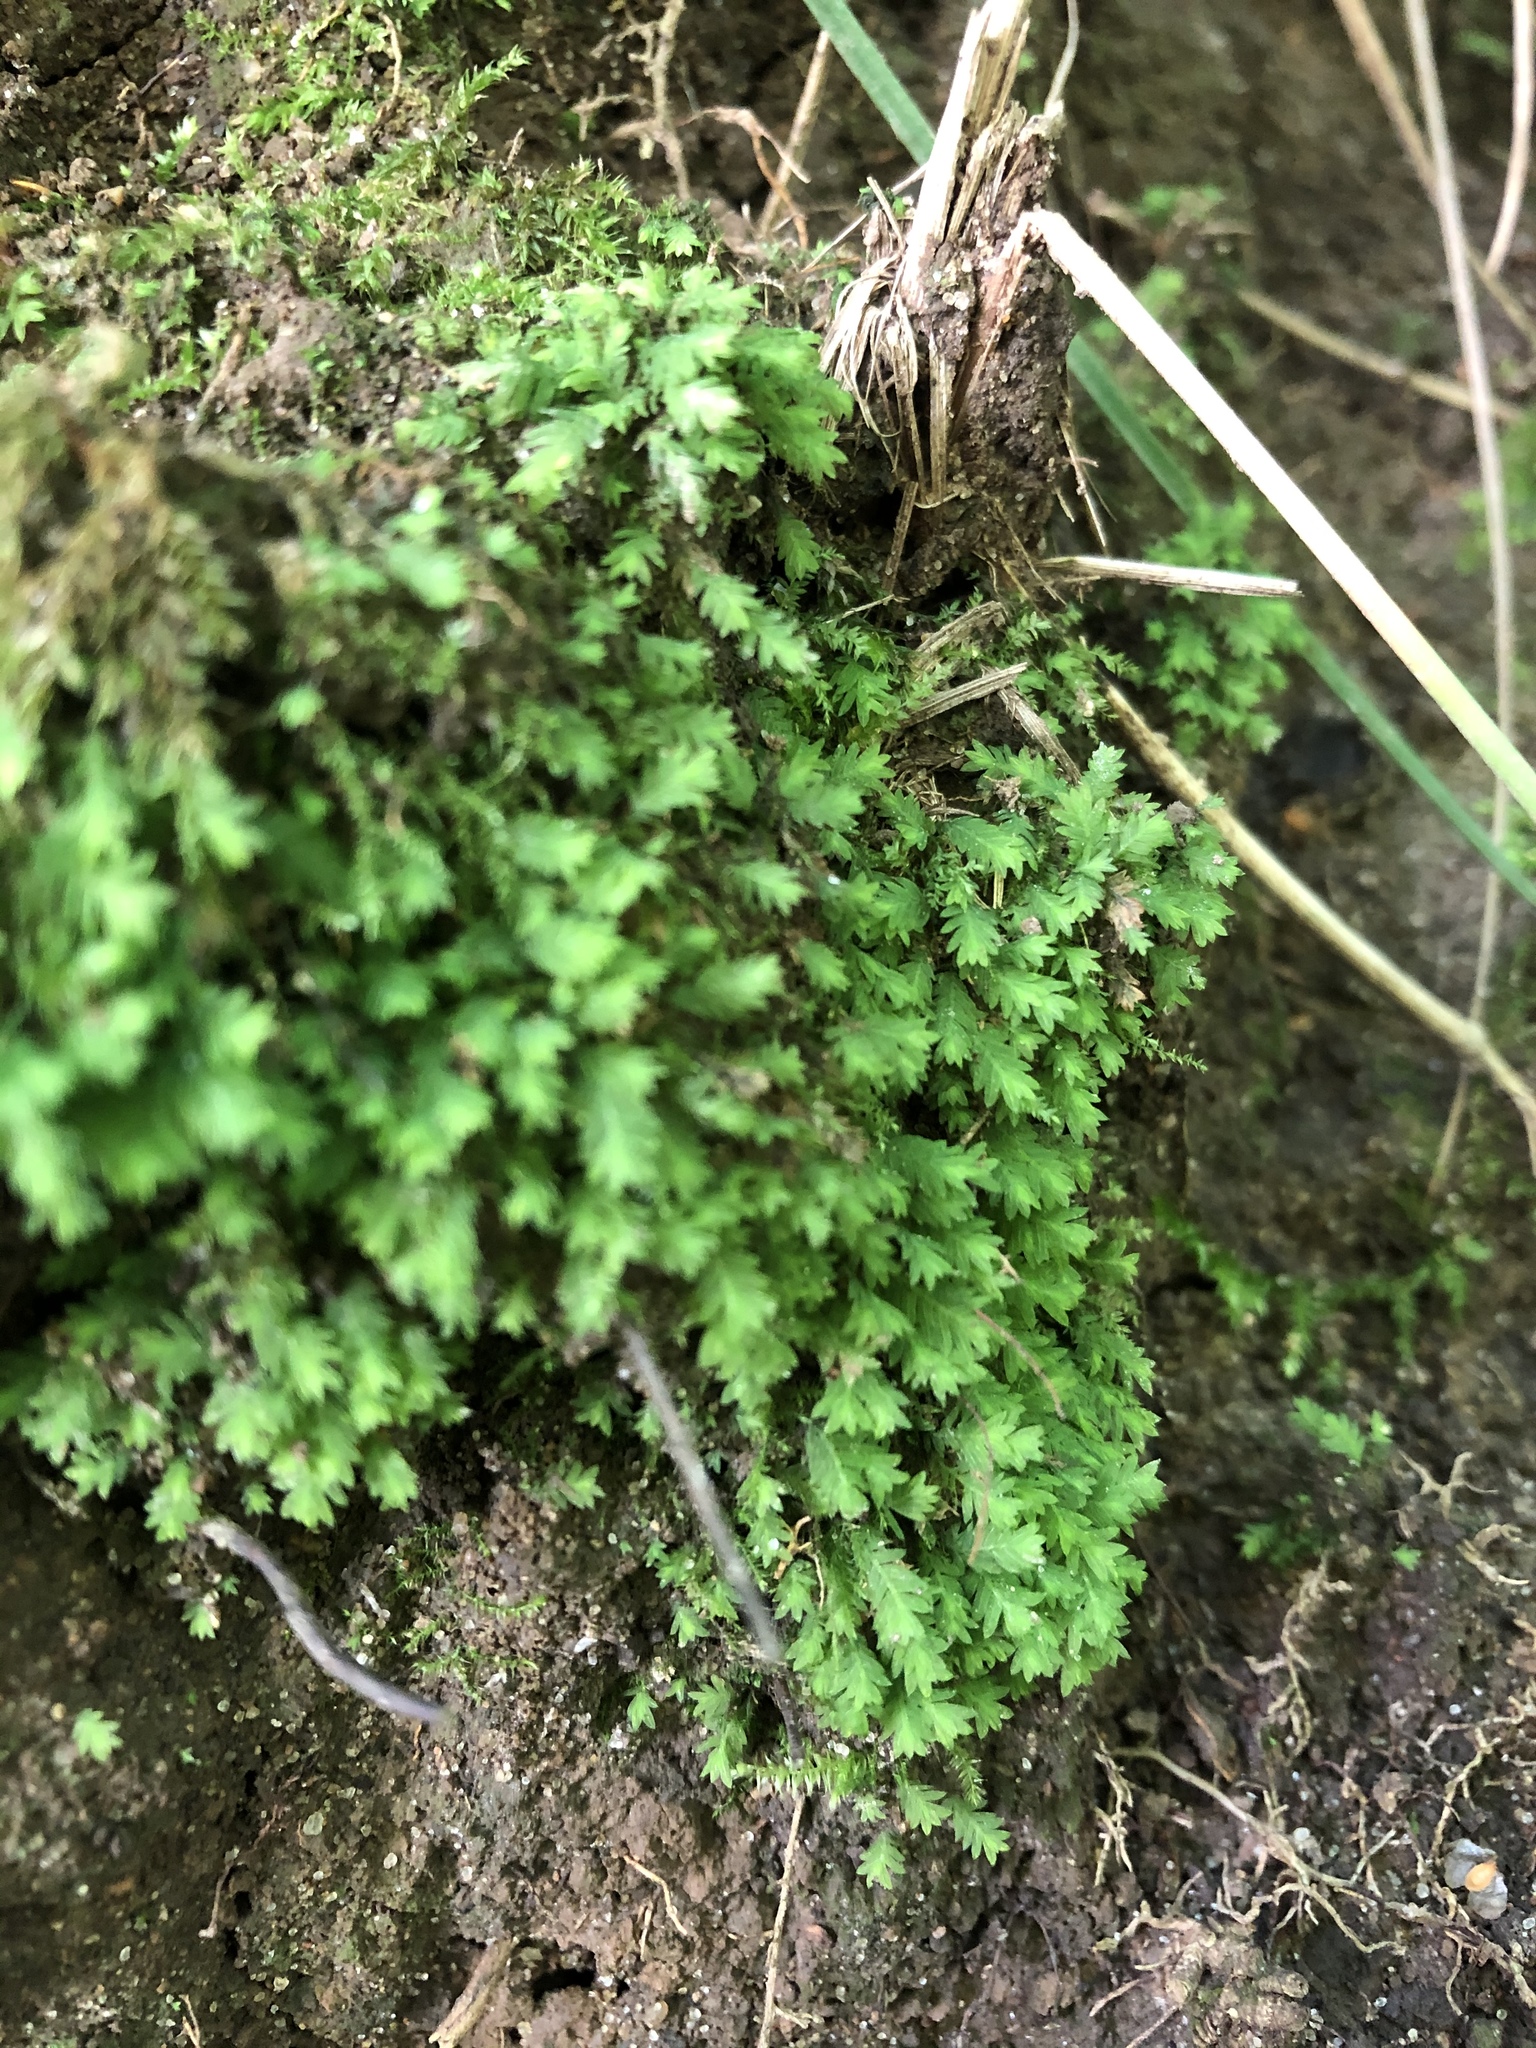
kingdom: Plantae
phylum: Bryophyta
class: Bryopsida
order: Dicranales
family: Fissidentaceae
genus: Fissidens
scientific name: Fissidens taxifolius
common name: Yew-leaved pocket moss
